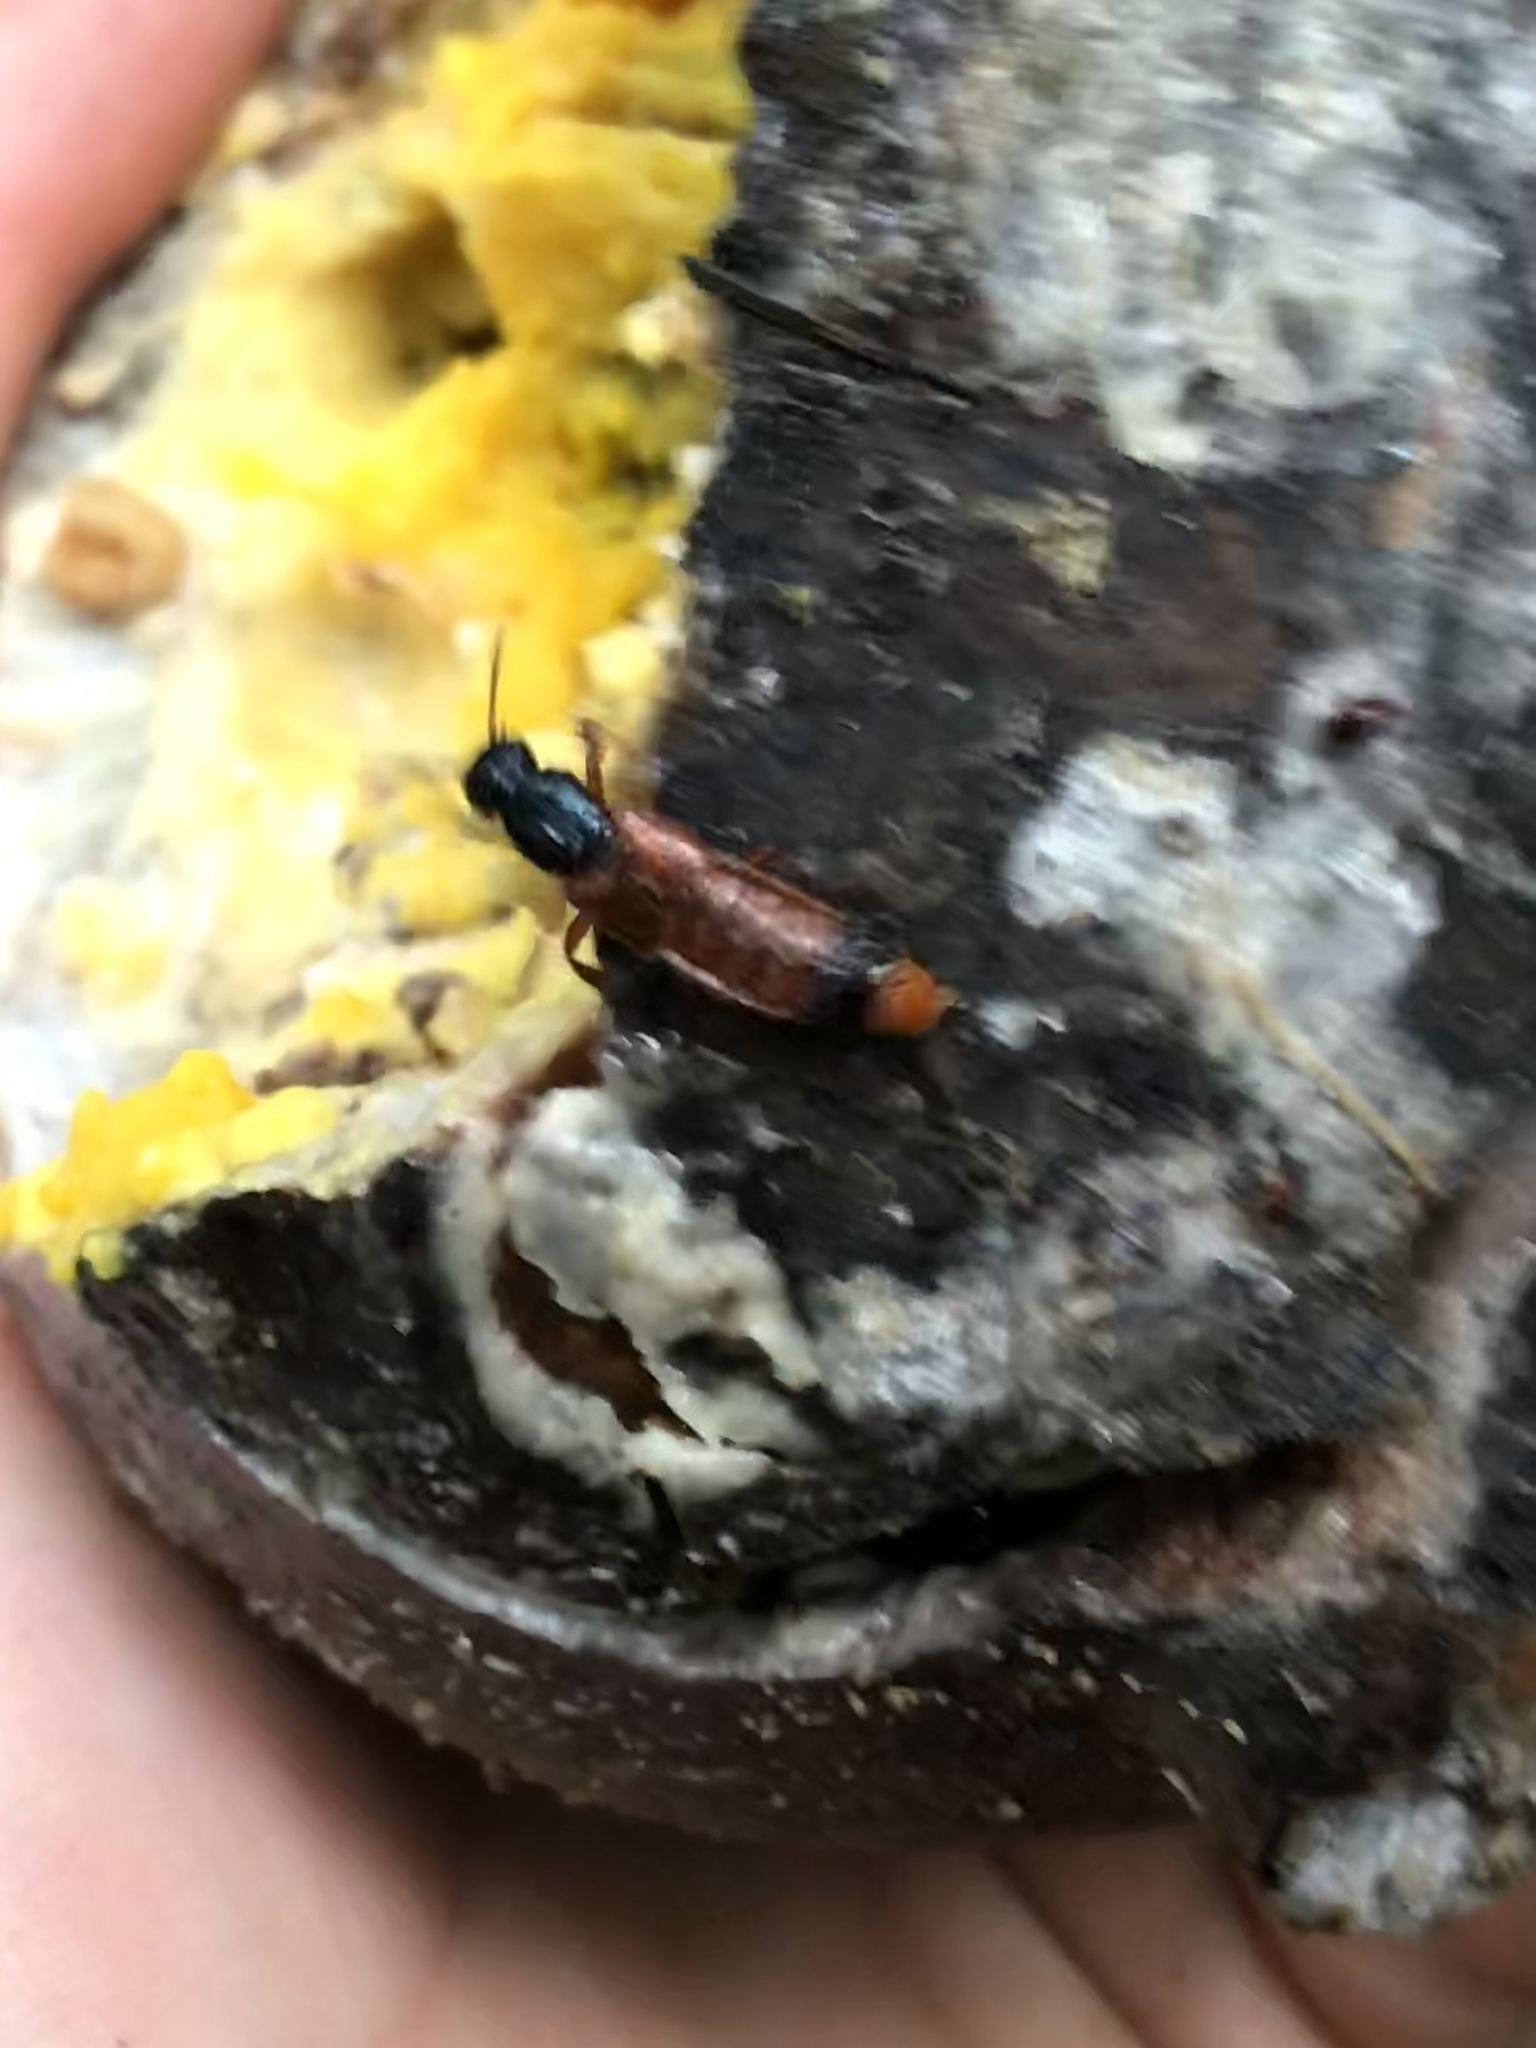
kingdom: Animalia
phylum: Arthropoda
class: Insecta
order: Coleoptera
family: Staphylinidae
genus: Xenopygus
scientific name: Xenopygus bicolor
